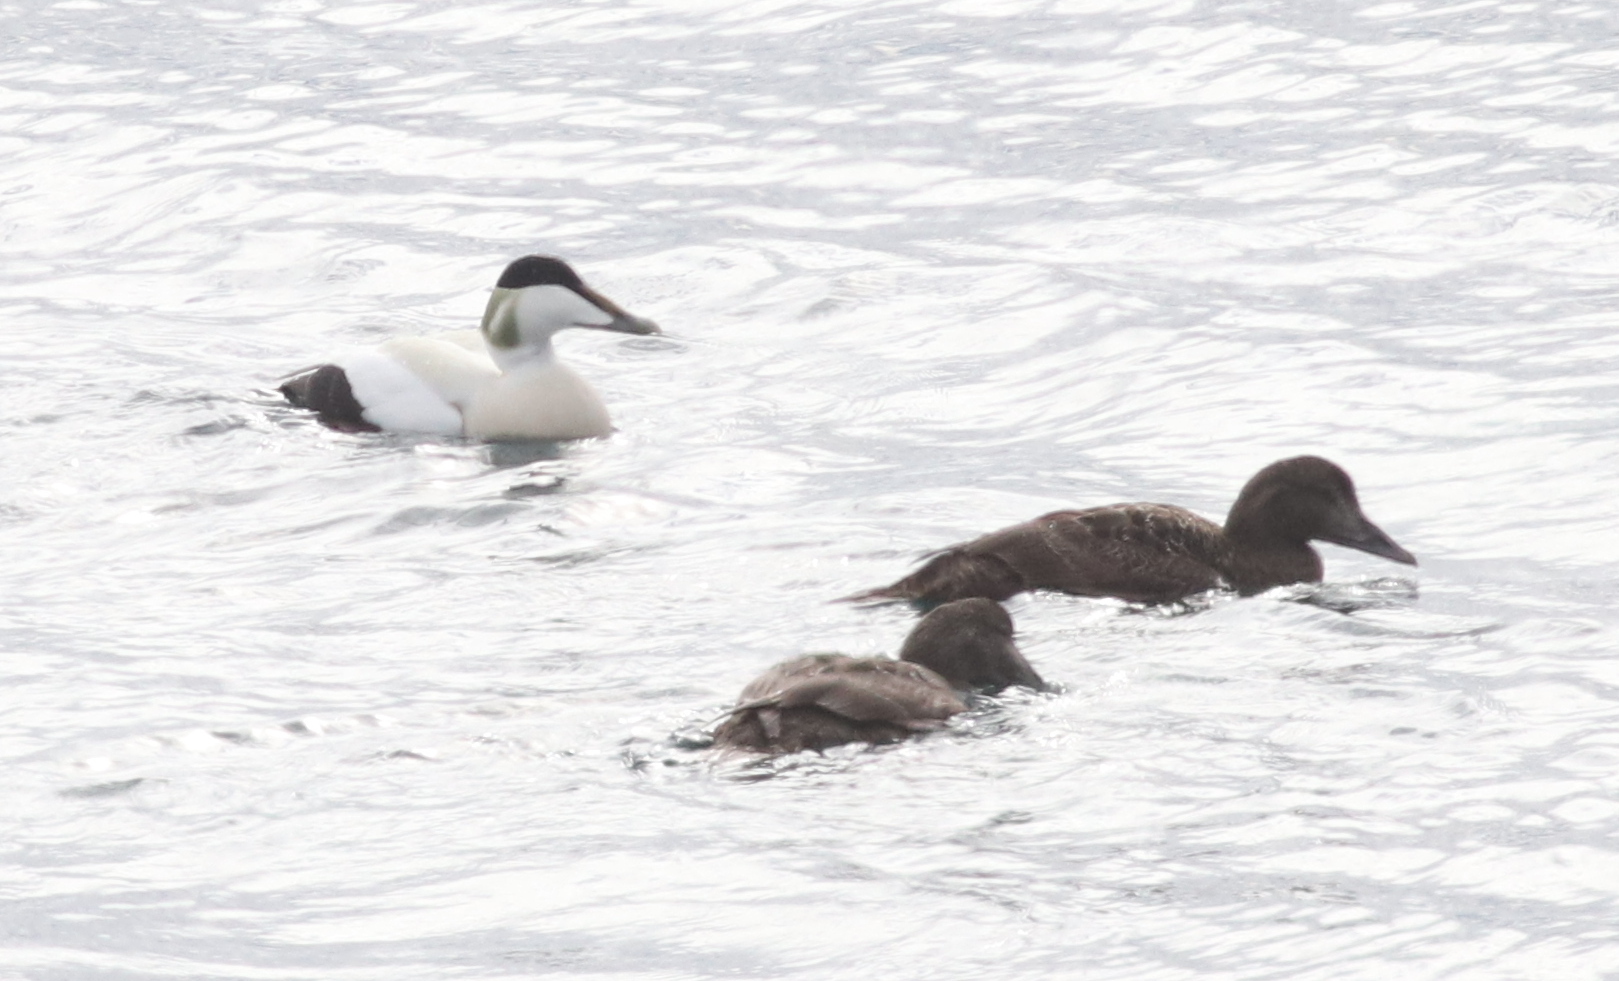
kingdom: Animalia
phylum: Chordata
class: Aves
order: Anseriformes
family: Anatidae
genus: Somateria
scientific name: Somateria mollissima
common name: Common eider
